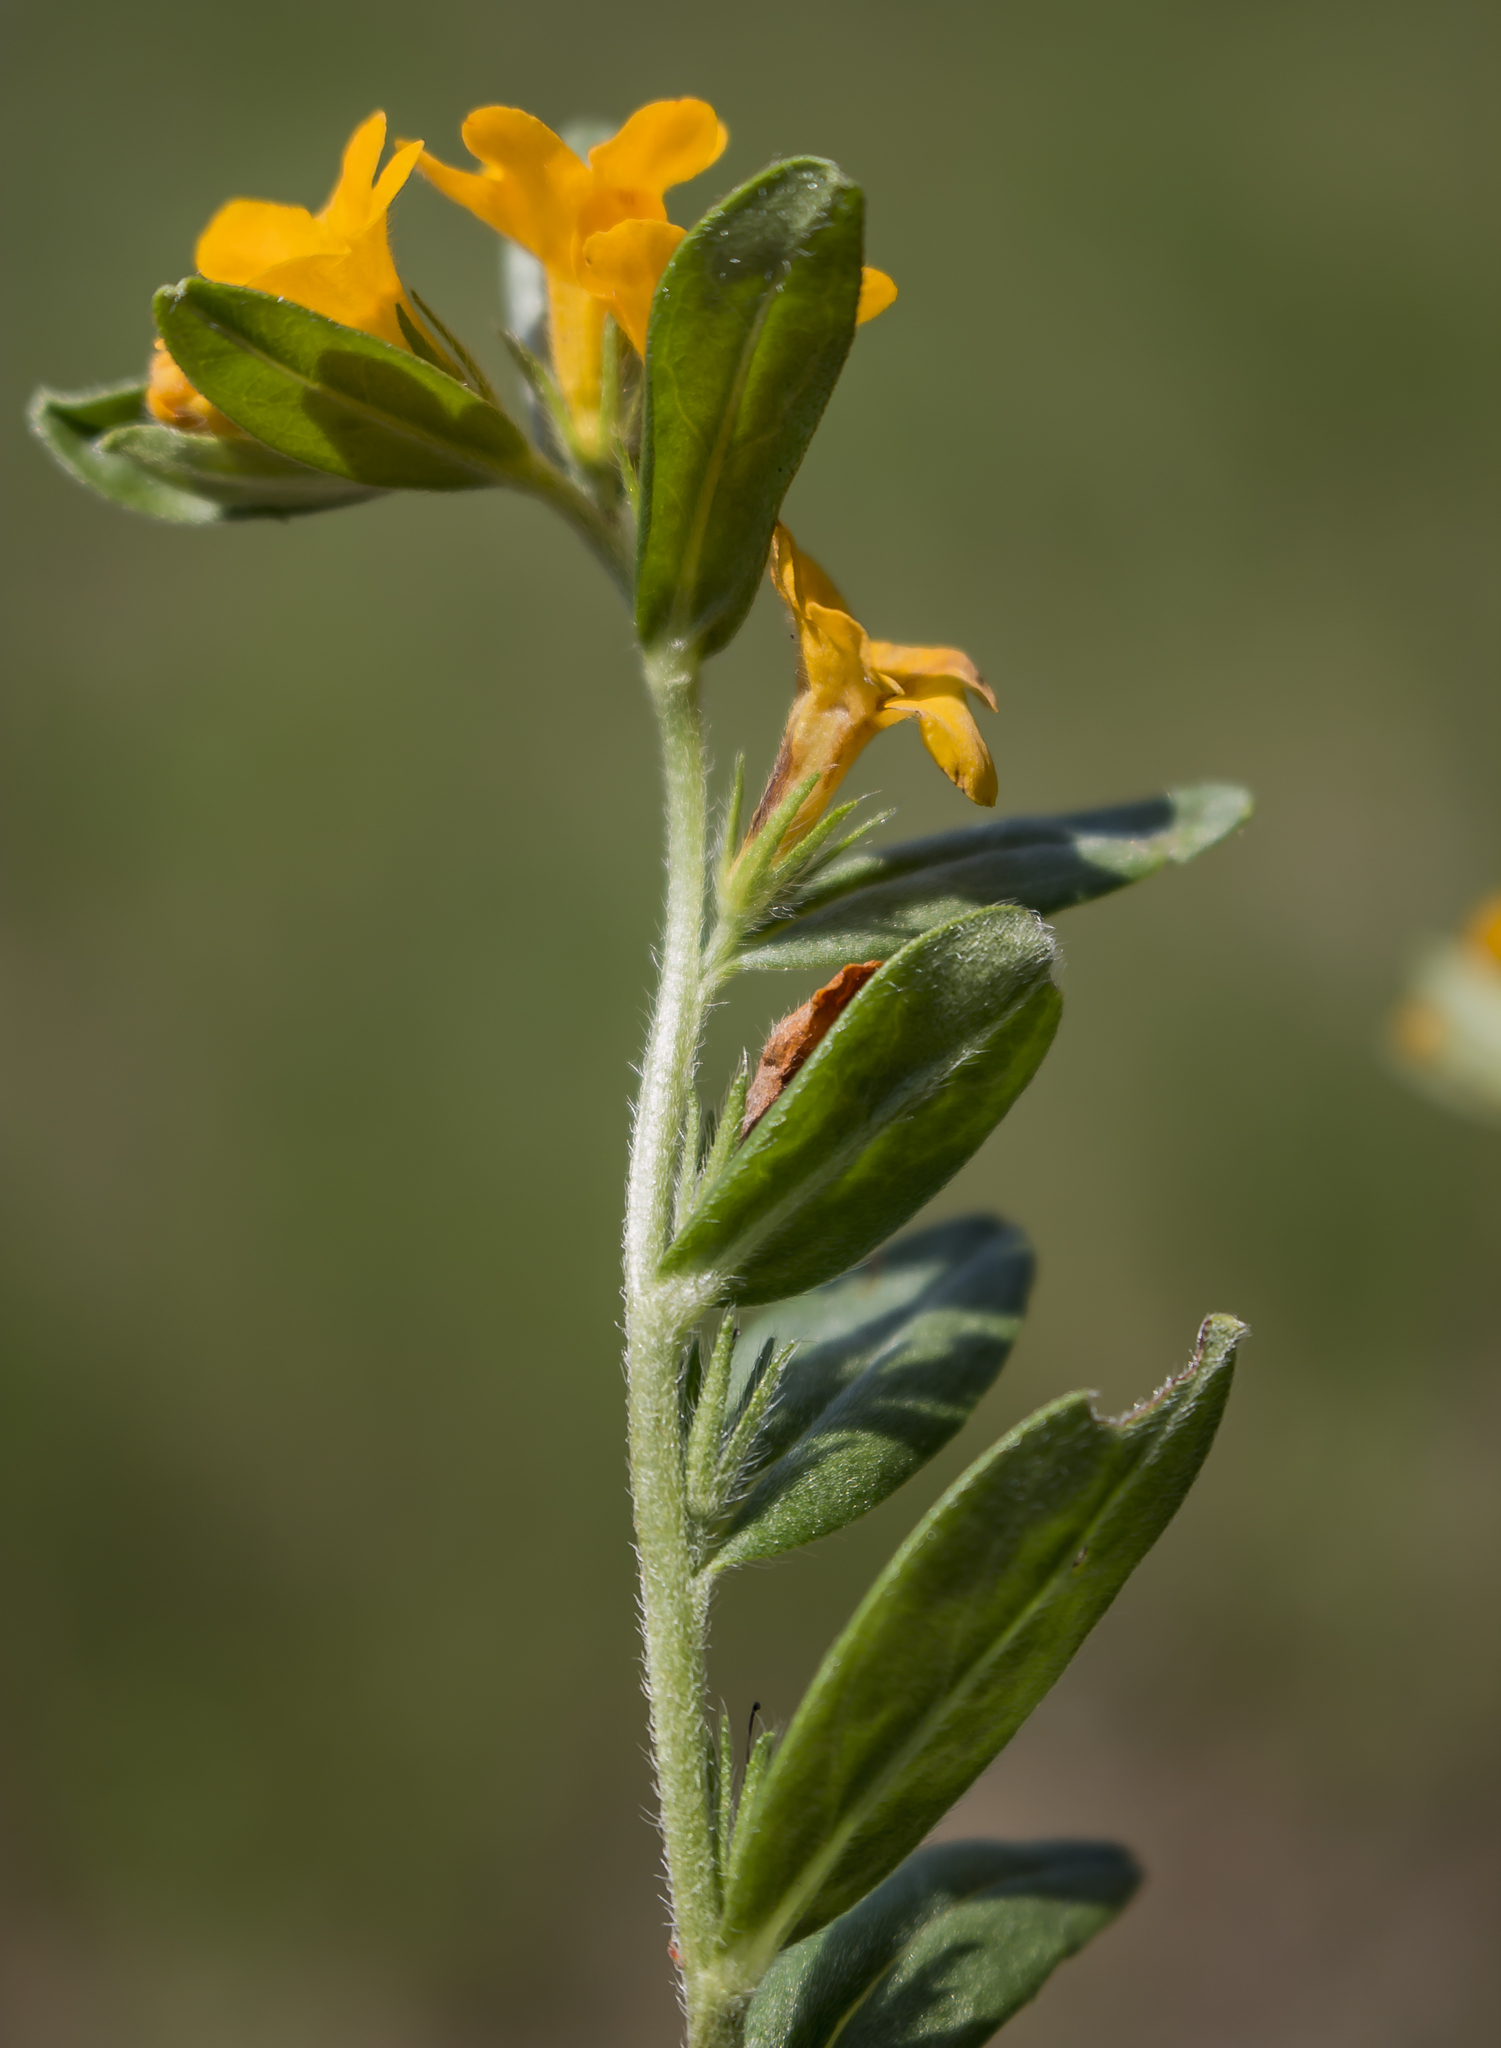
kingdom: Plantae
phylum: Tracheophyta
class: Magnoliopsida
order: Boraginales
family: Boraginaceae
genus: Lithospermum
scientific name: Lithospermum canescens
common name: Hoary puccoon
